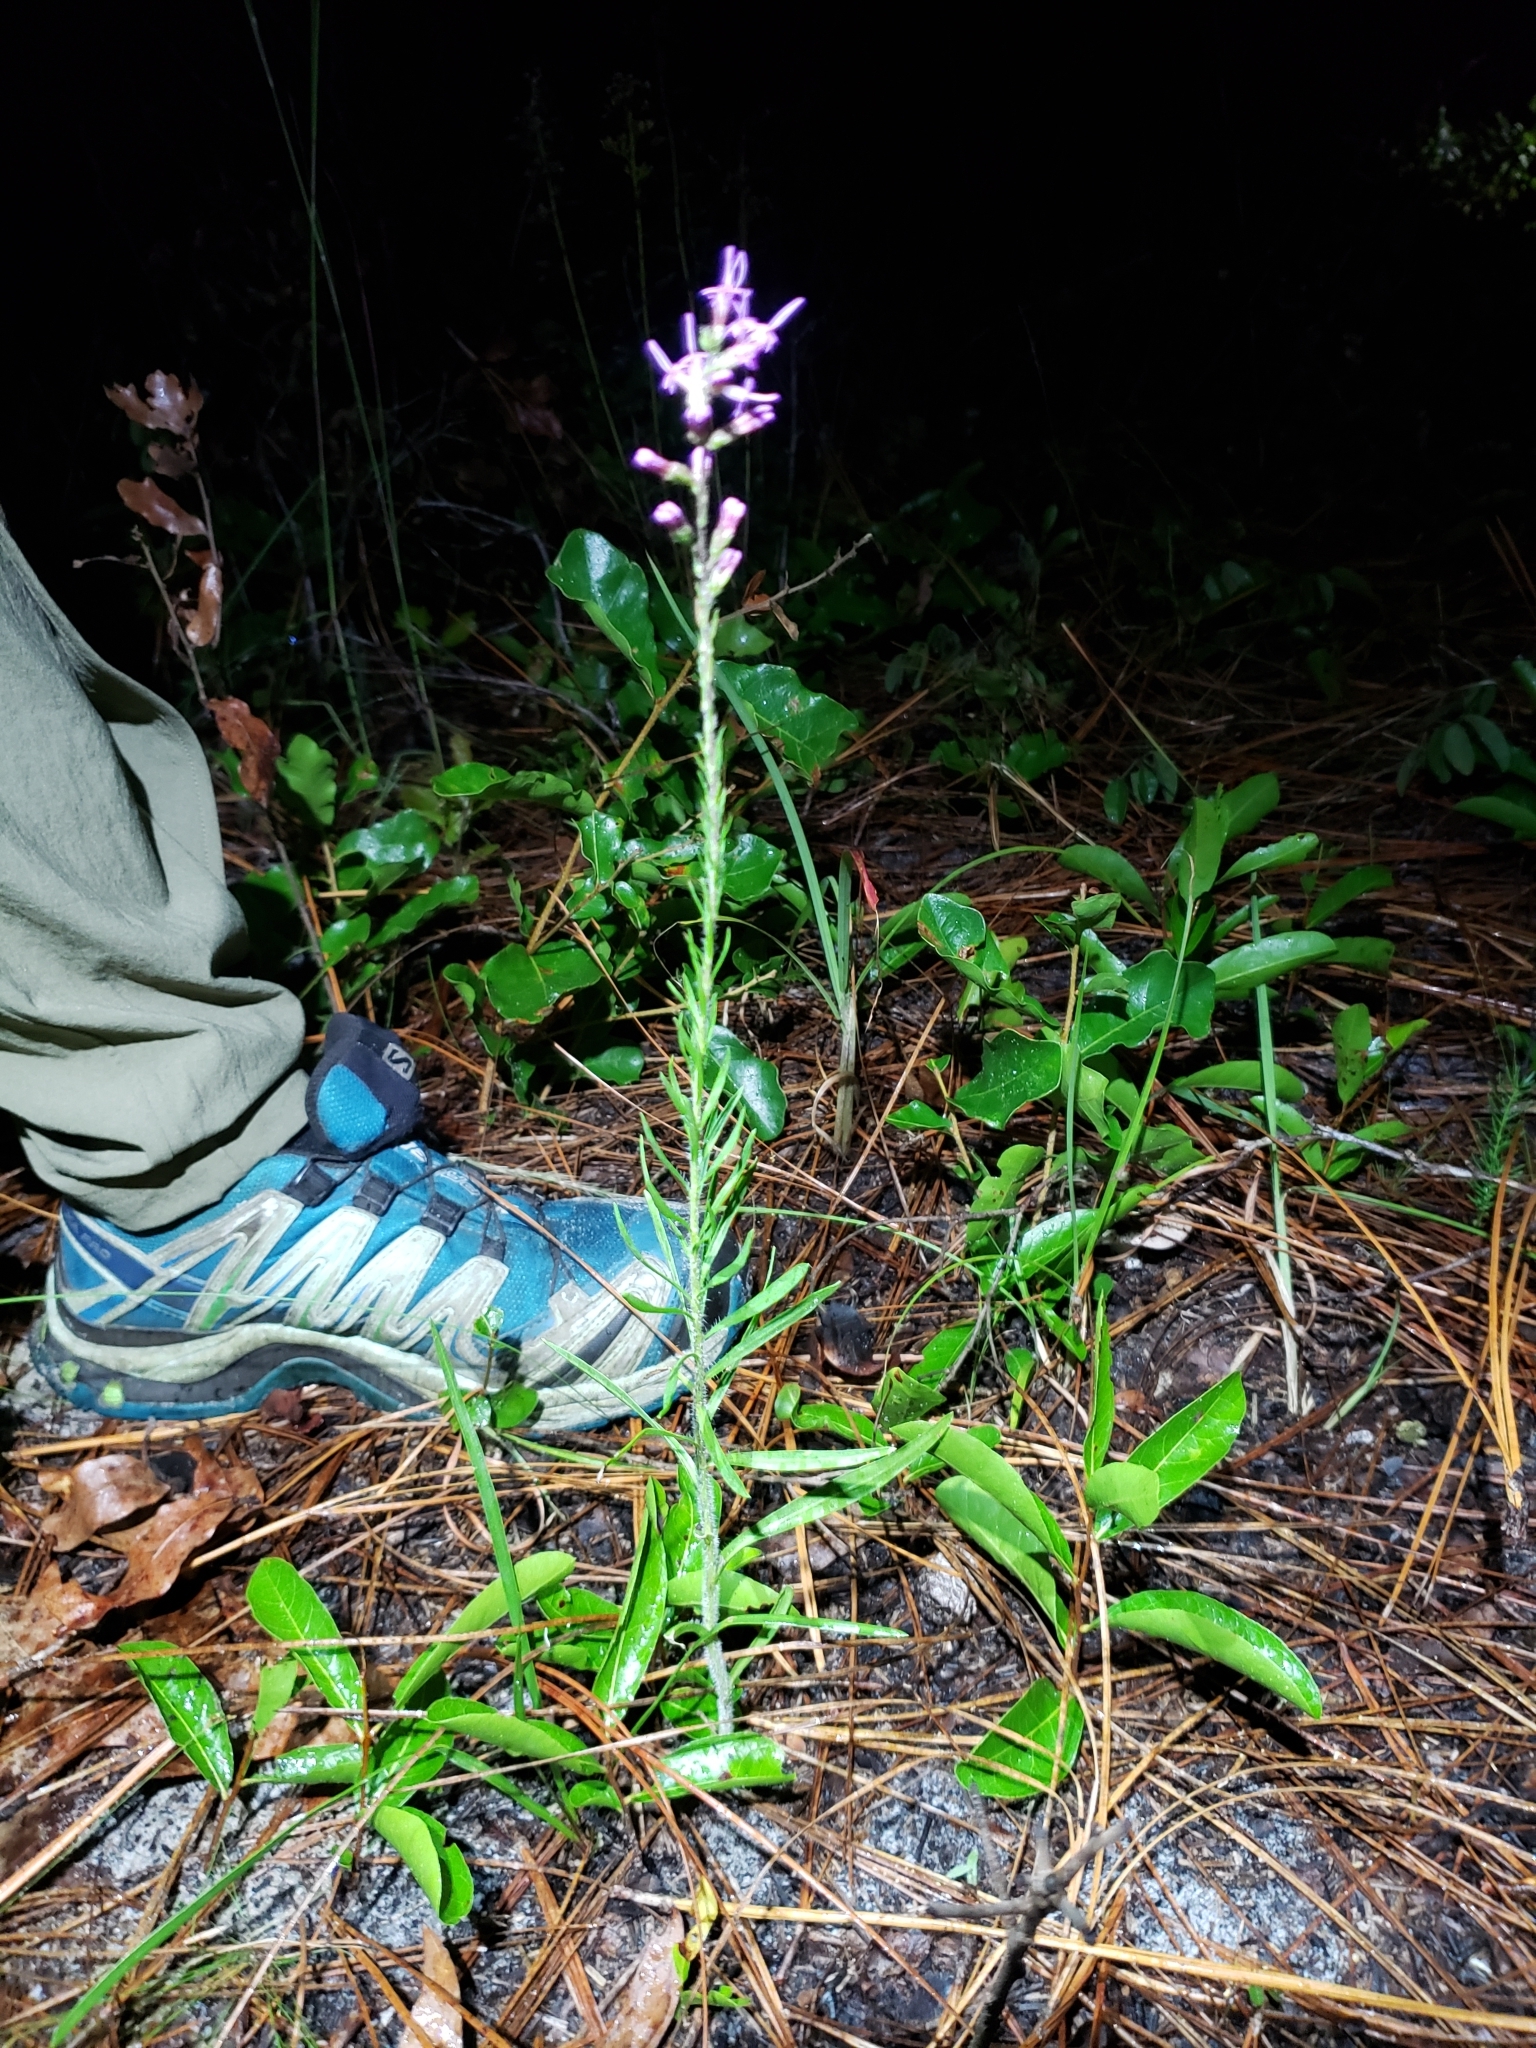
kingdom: Plantae
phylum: Tracheophyta
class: Magnoliopsida
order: Asterales
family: Asteraceae
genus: Liatris
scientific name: Liatris gracilis
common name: Slender gayfeather
